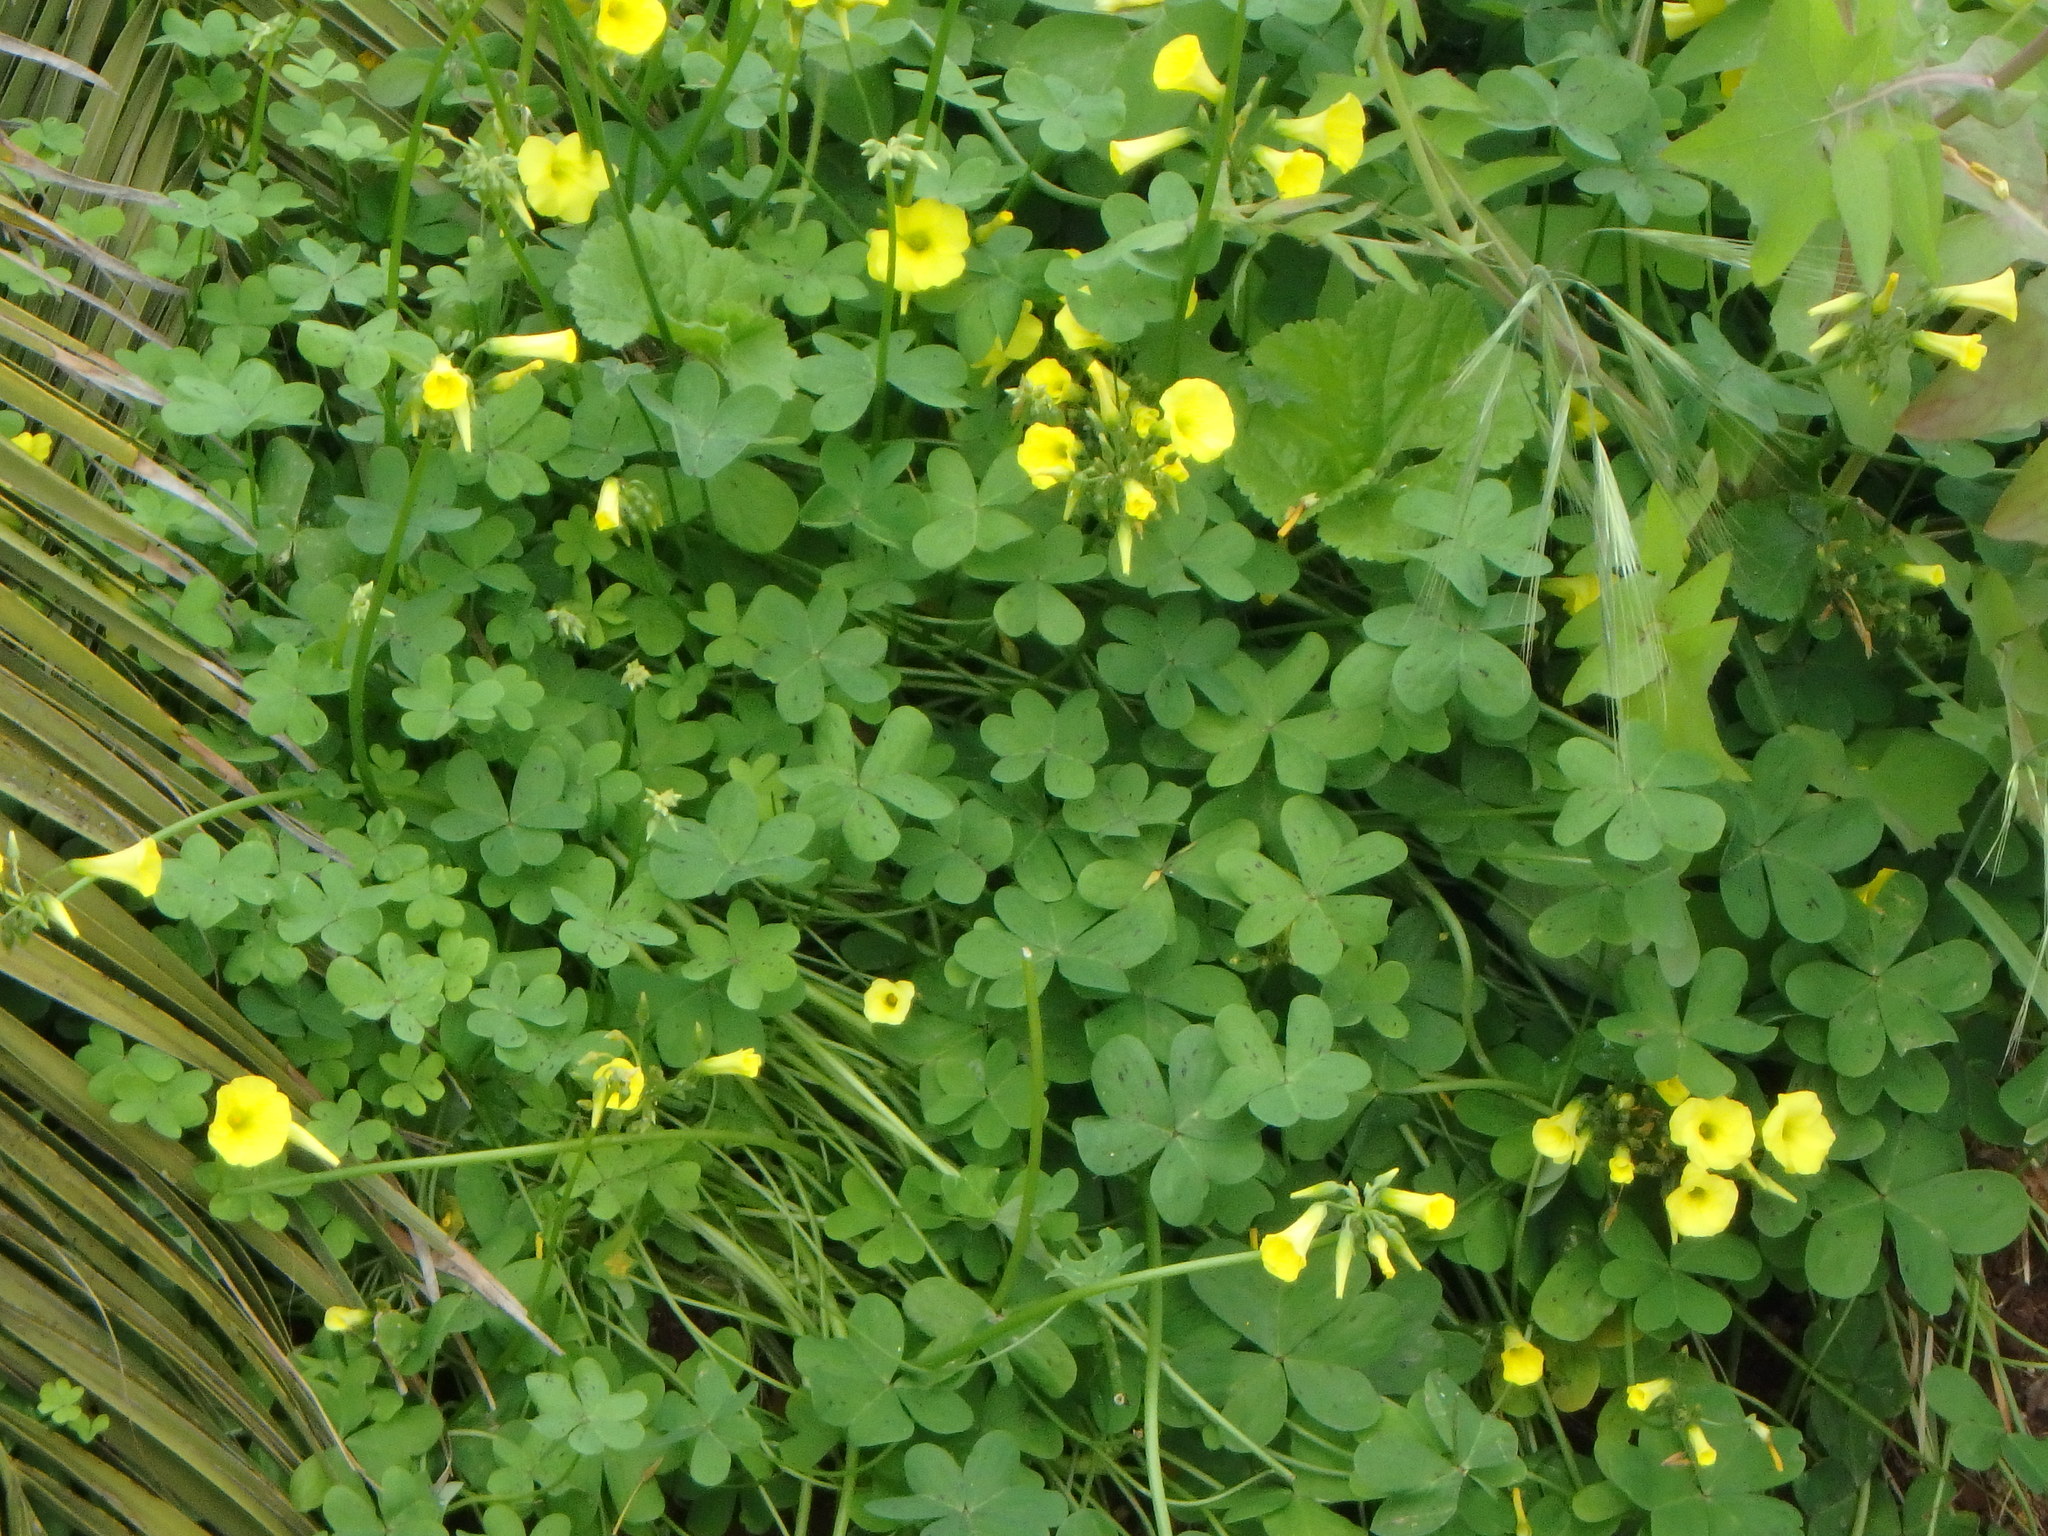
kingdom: Plantae
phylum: Tracheophyta
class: Magnoliopsida
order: Oxalidales
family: Oxalidaceae
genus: Oxalis
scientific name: Oxalis pes-caprae
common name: Bermuda-buttercup
